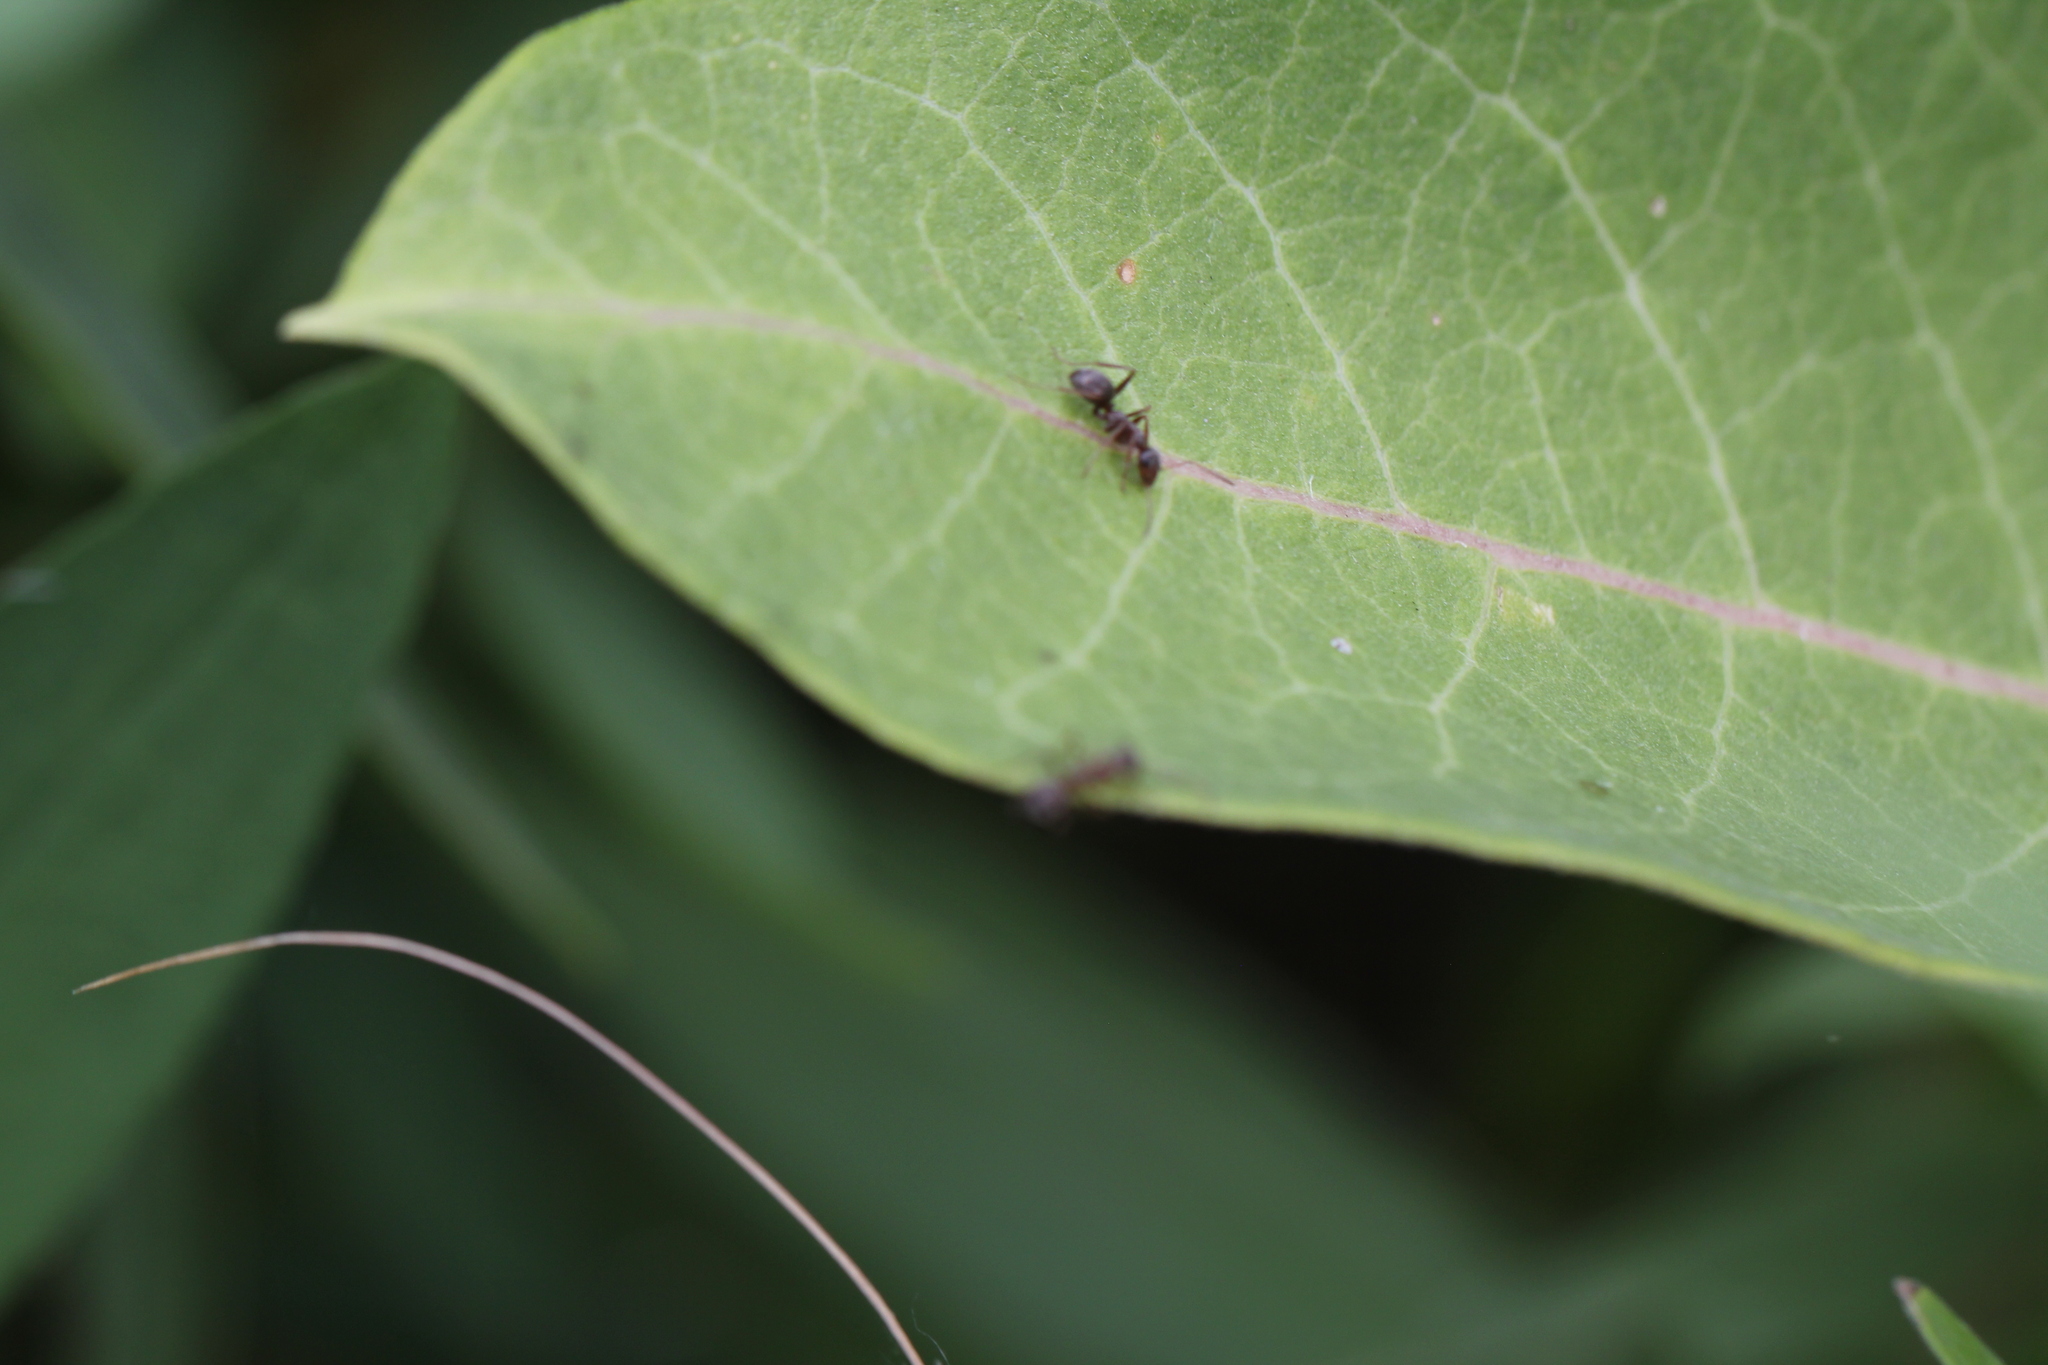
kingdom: Animalia
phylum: Arthropoda
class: Insecta
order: Hymenoptera
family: Formicidae
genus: Formica
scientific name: Formica montana
